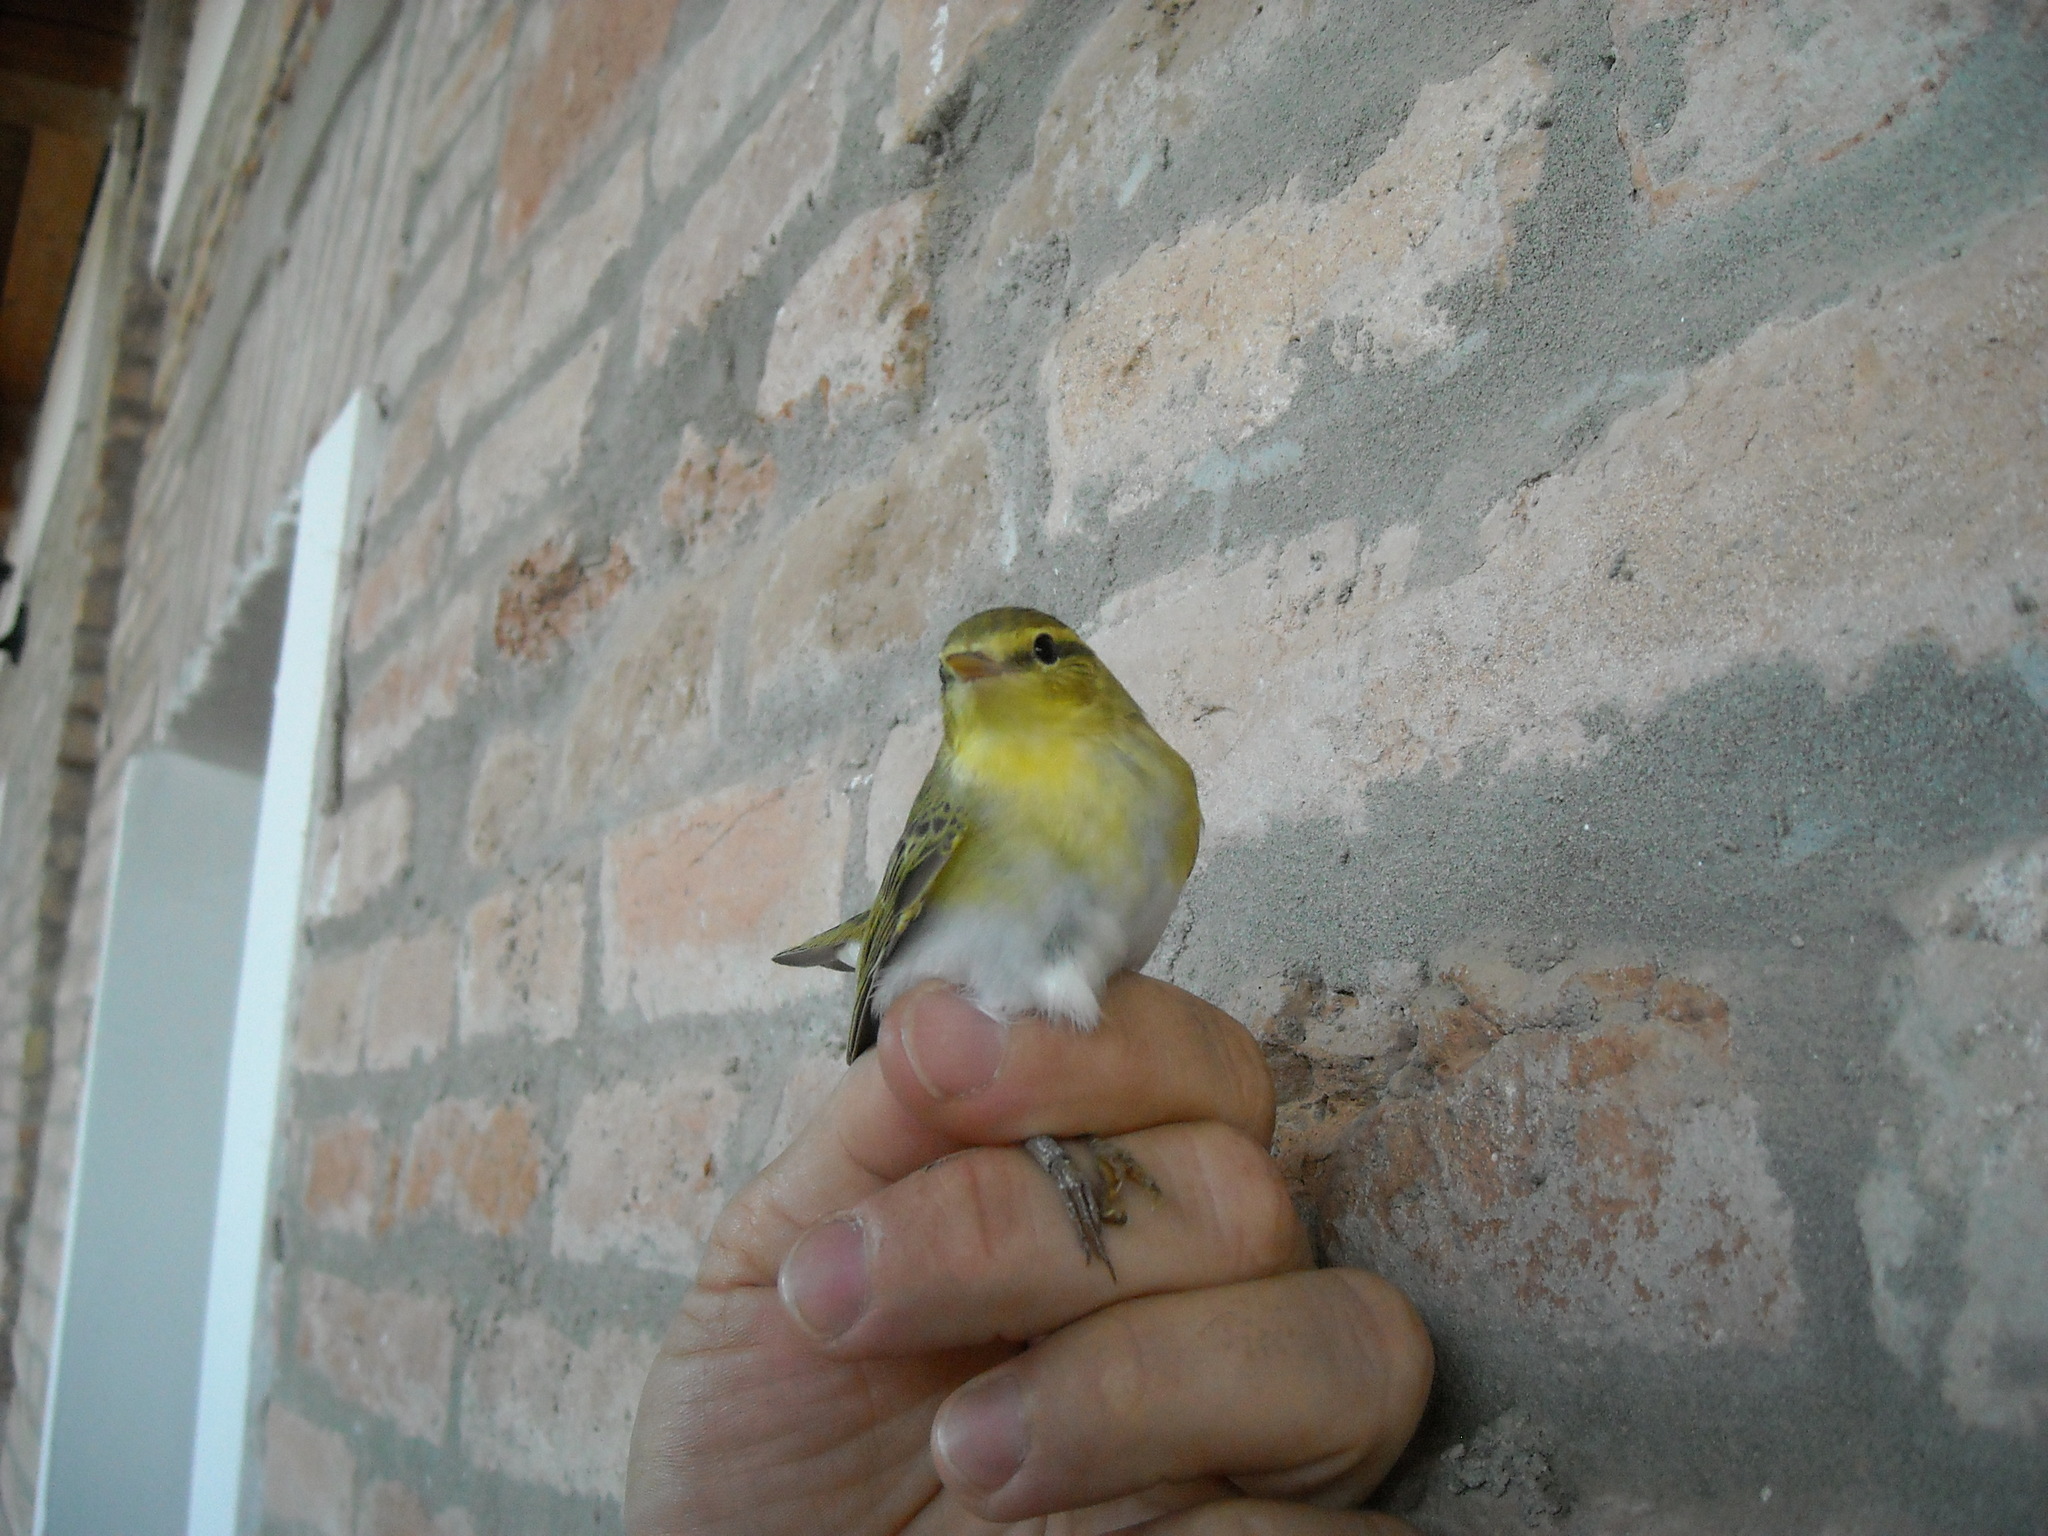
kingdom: Animalia
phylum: Chordata
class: Aves
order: Passeriformes
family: Phylloscopidae
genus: Phylloscopus
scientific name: Phylloscopus sibillatrix
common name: Wood warbler
